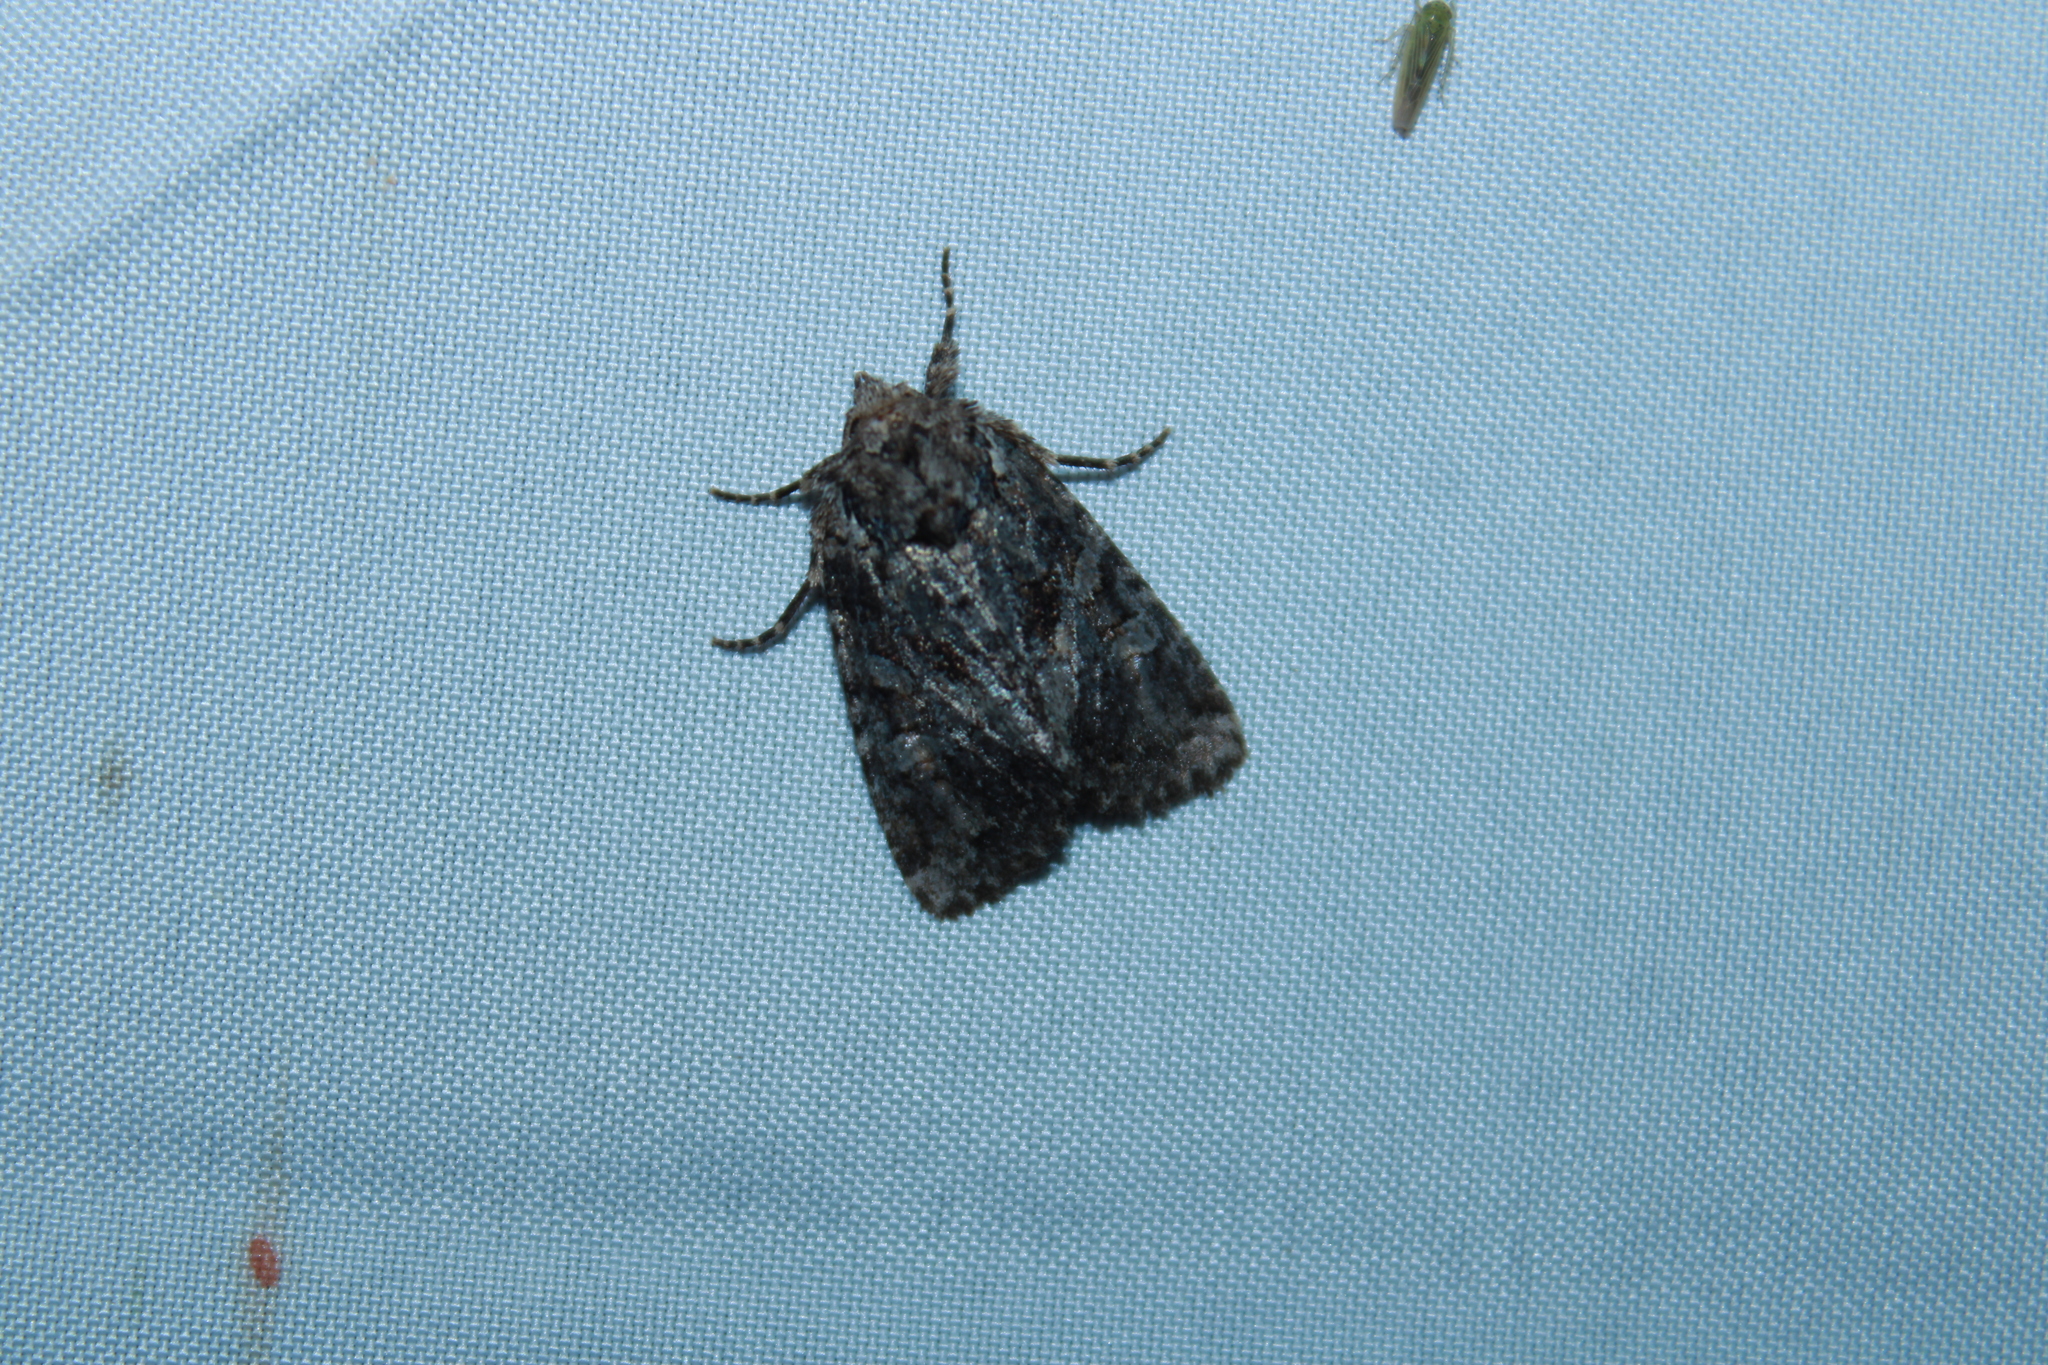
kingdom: Animalia
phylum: Arthropoda
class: Insecta
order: Lepidoptera
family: Noctuidae
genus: Orthodes
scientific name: Orthodes detracta
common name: Disparaged arches moth
